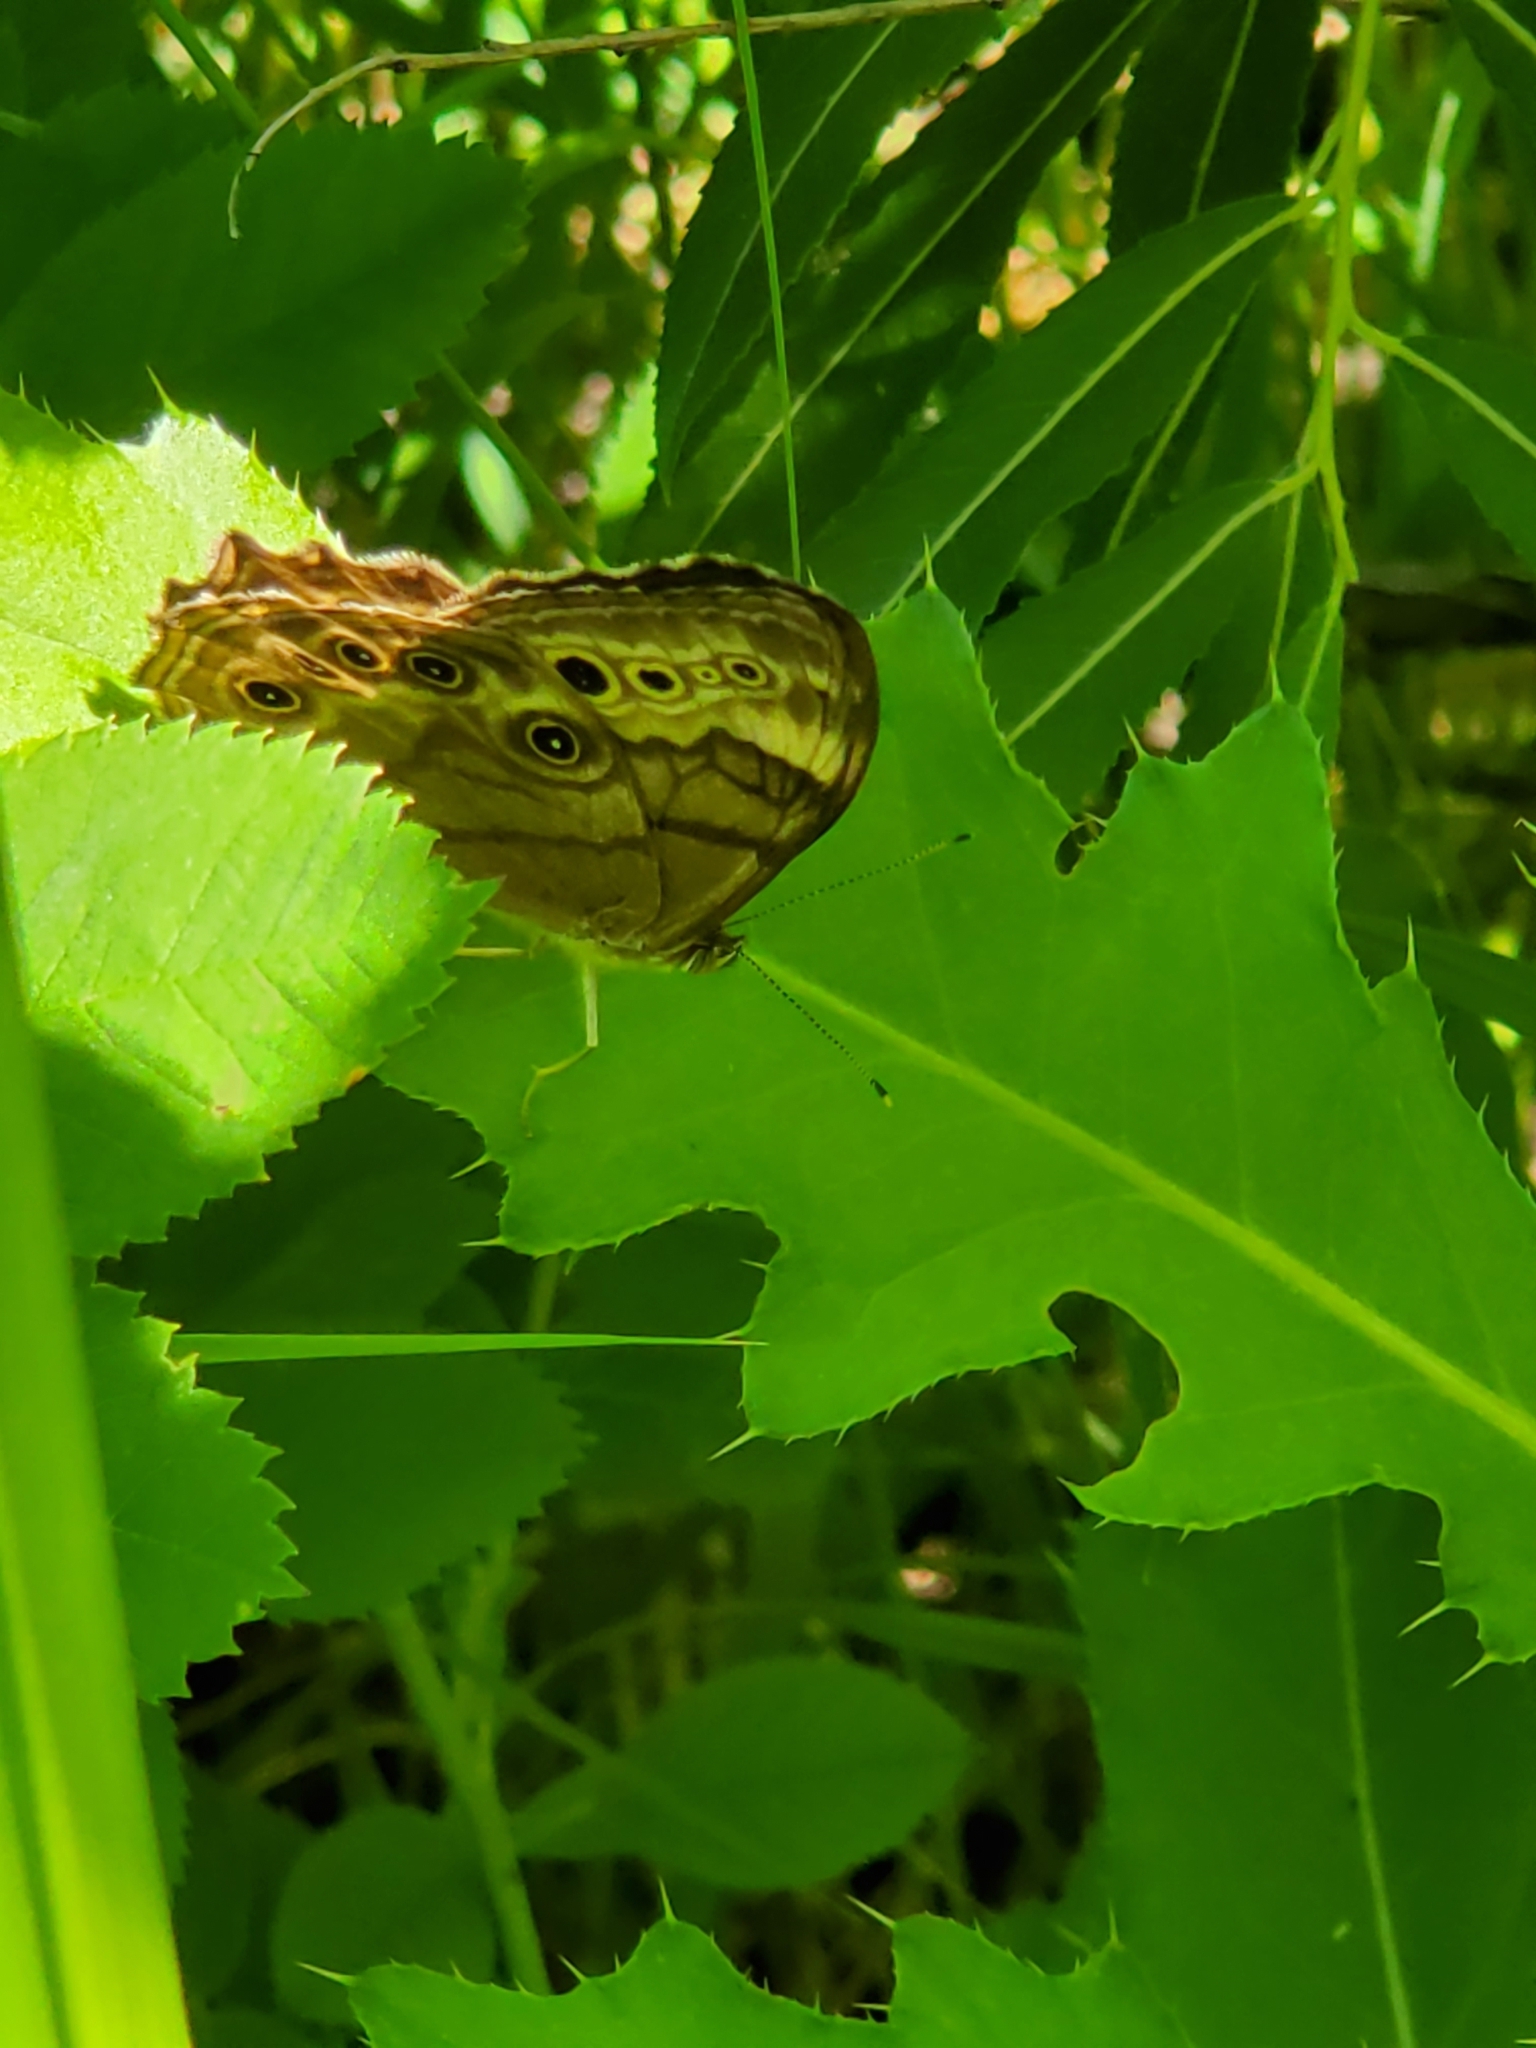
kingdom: Animalia
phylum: Arthropoda
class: Insecta
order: Lepidoptera
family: Nymphalidae
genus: Lethe
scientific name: Lethe anthedon
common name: Northern pearly-eye
